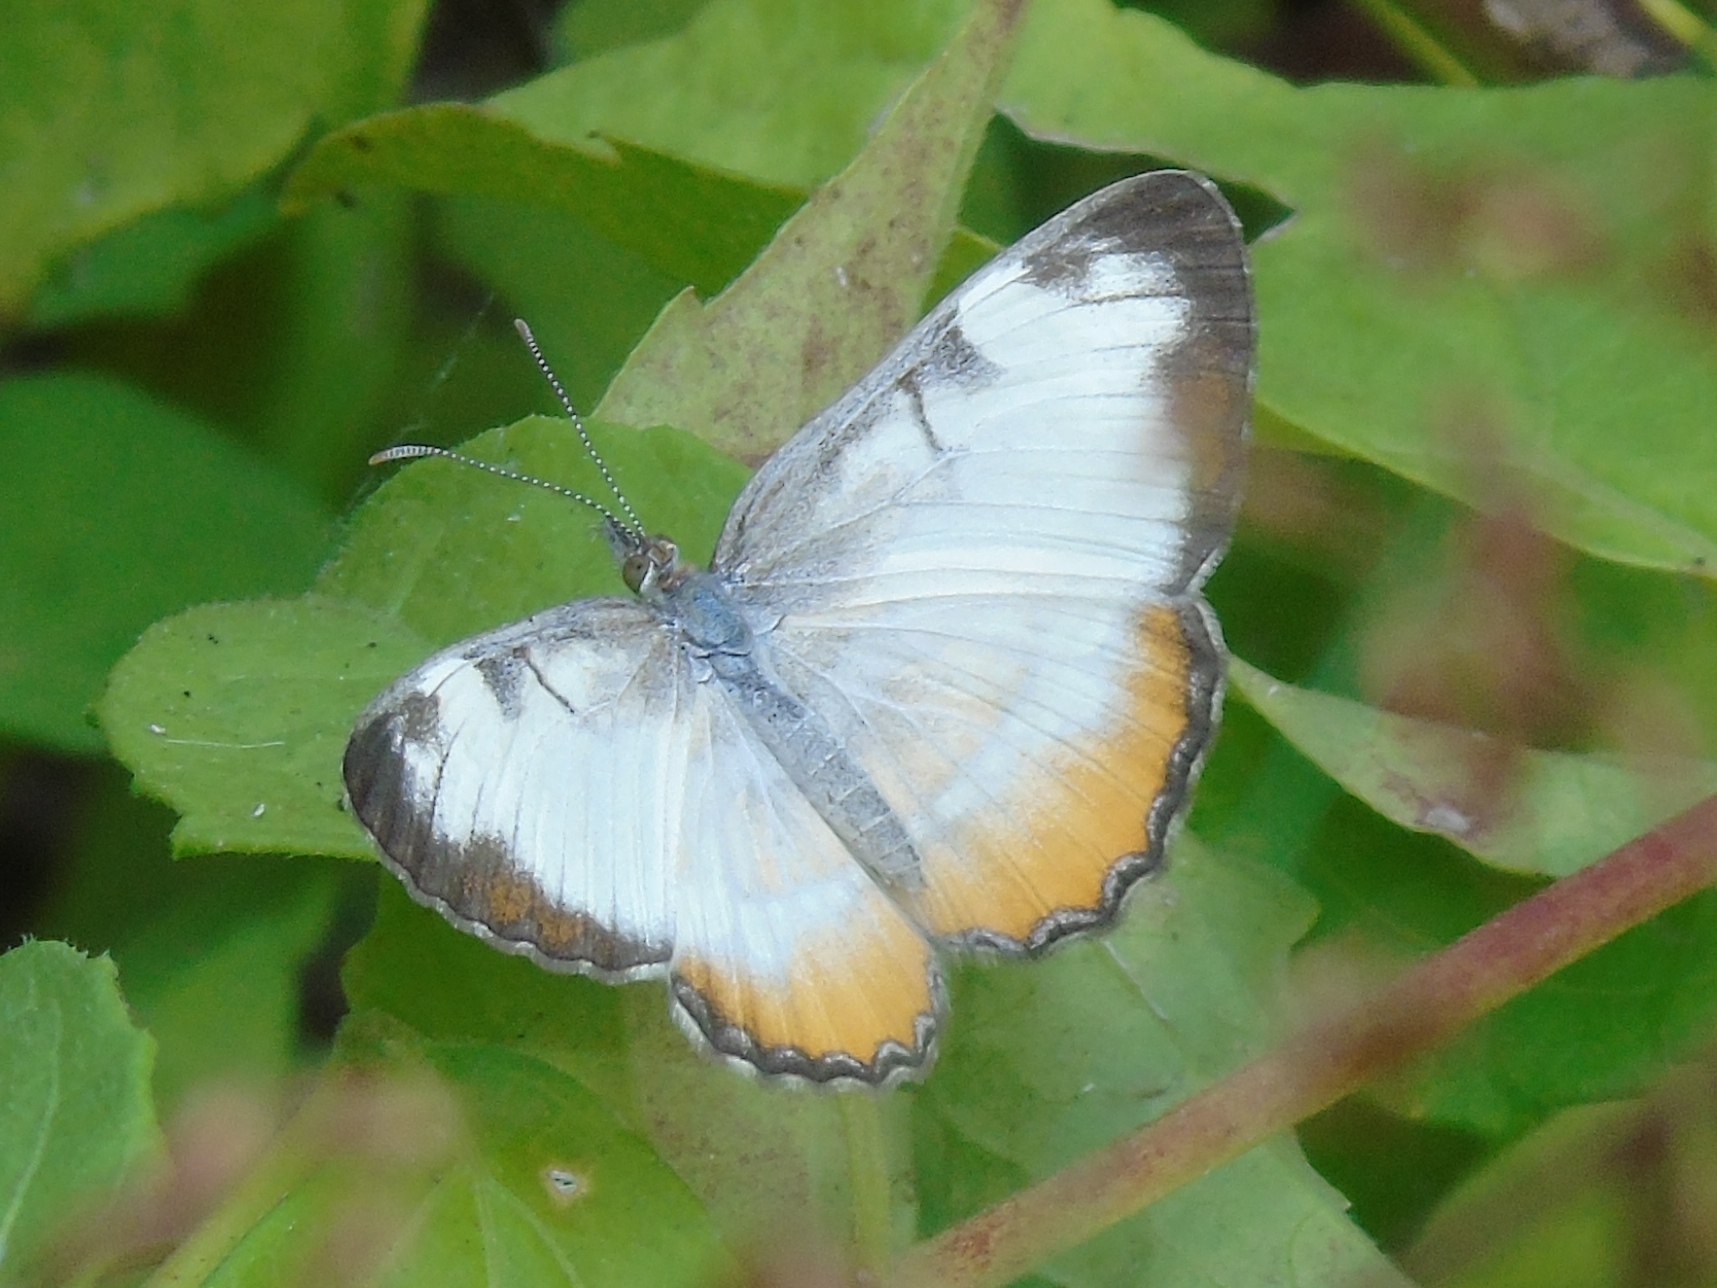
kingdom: Animalia
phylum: Arthropoda
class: Insecta
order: Lepidoptera
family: Nymphalidae
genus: Mestra
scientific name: Mestra amymone
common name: Common mestra
